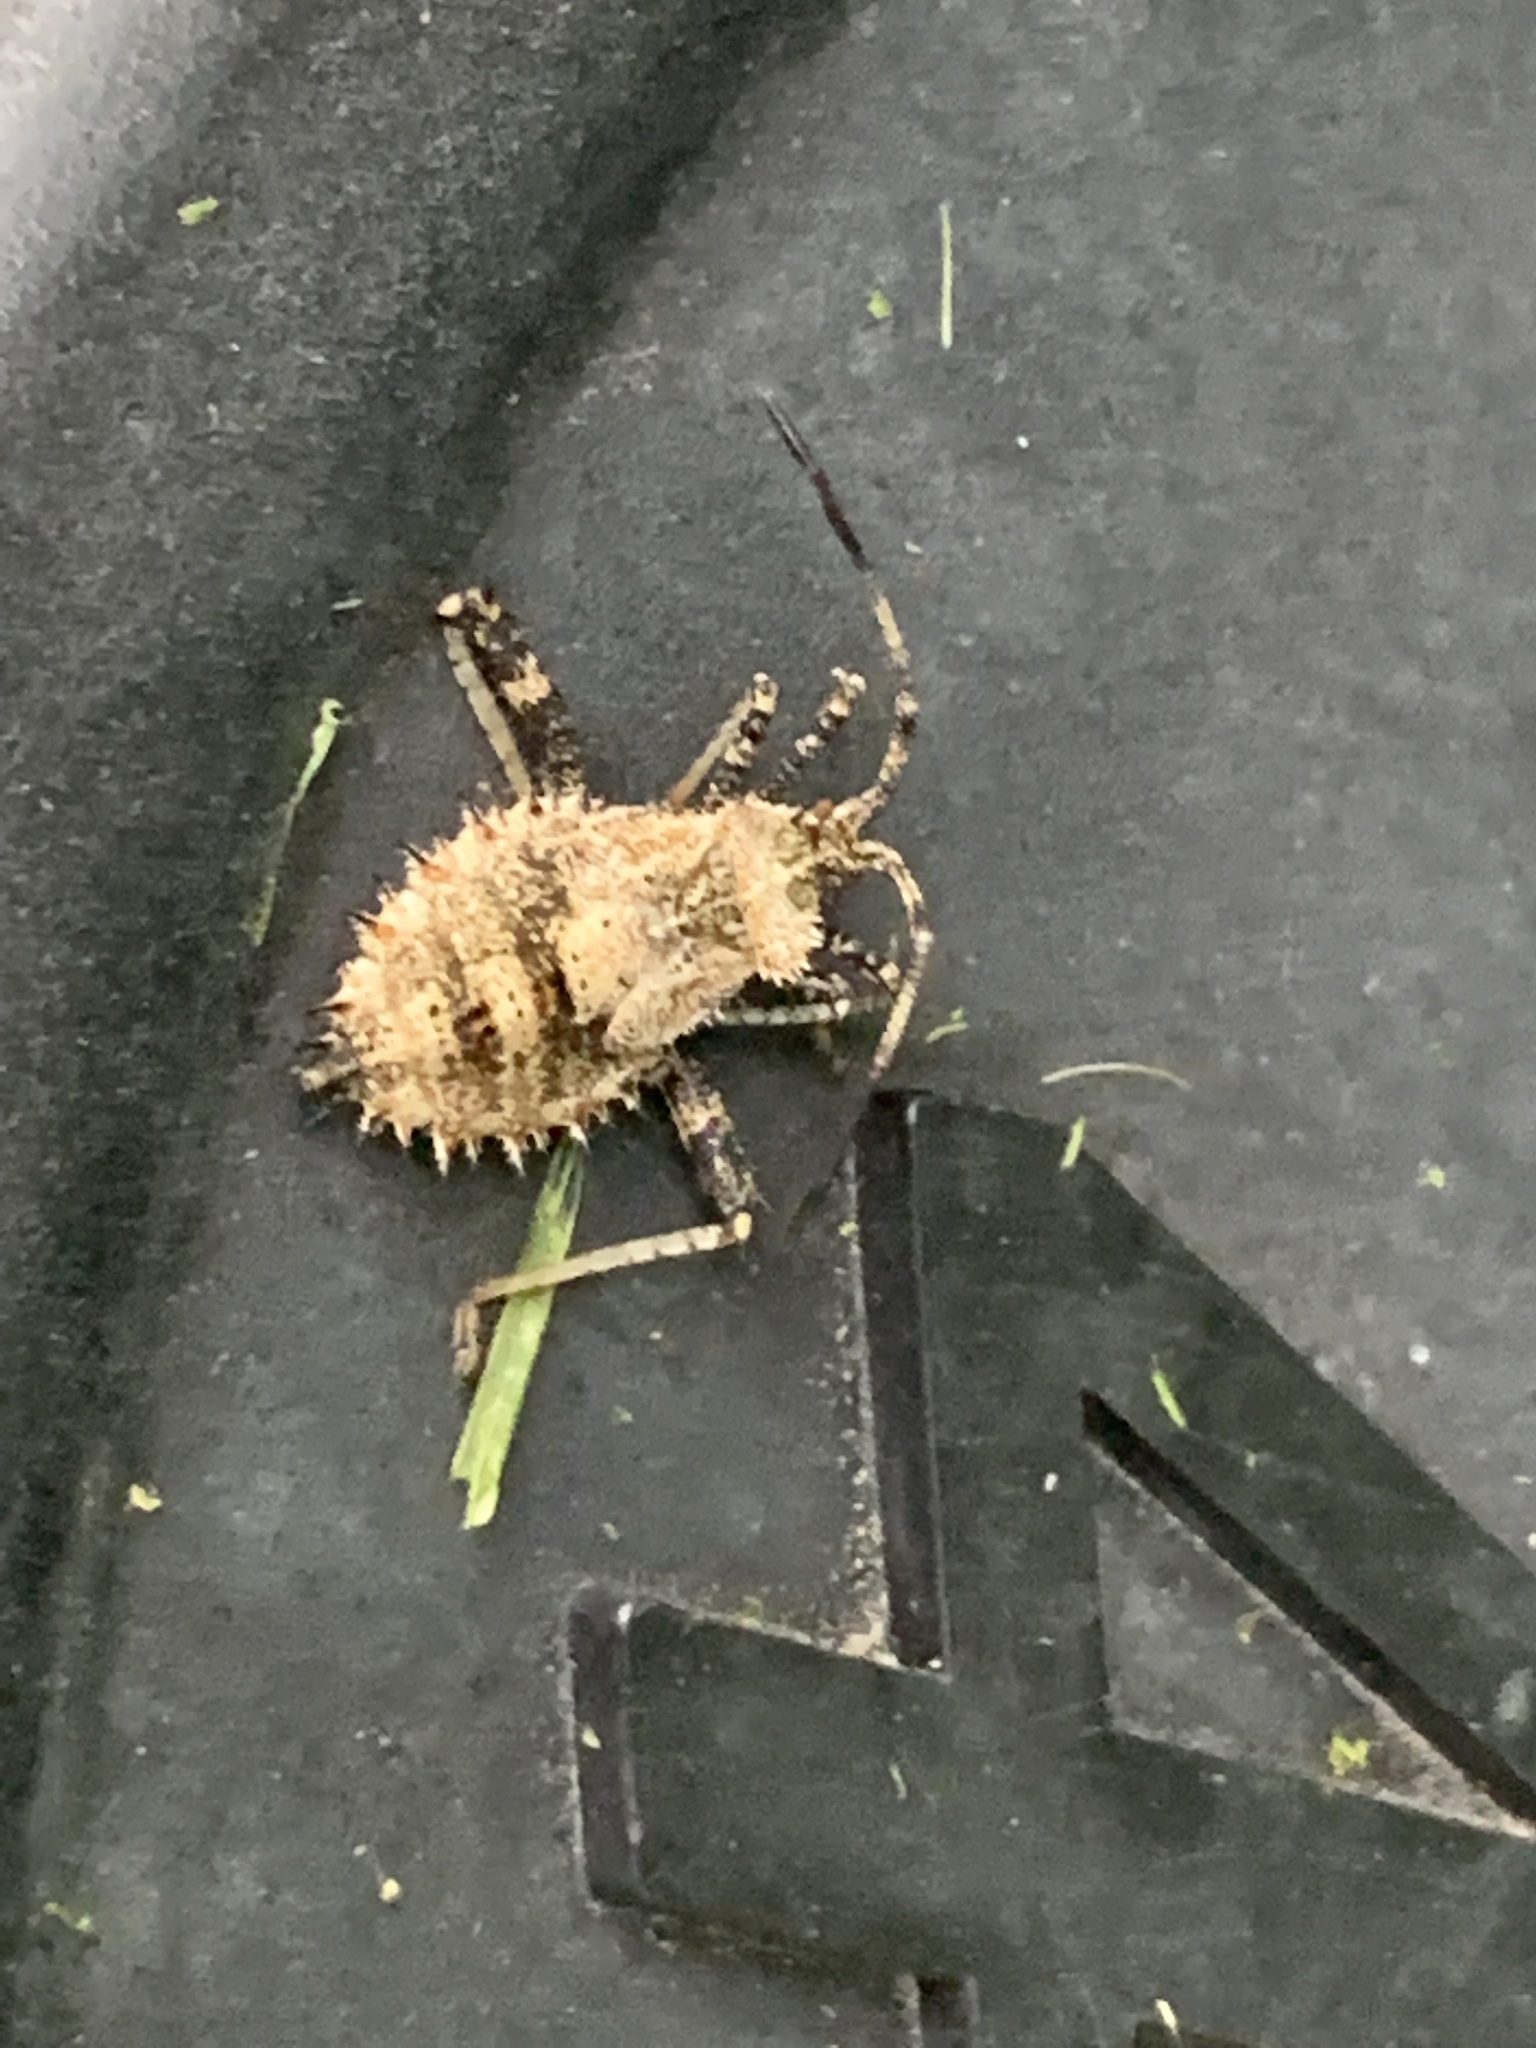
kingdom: Animalia
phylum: Arthropoda
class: Insecta
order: Hemiptera
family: Coreidae
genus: Euthochtha
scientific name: Euthochtha galeator
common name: Helmeted squash bug
